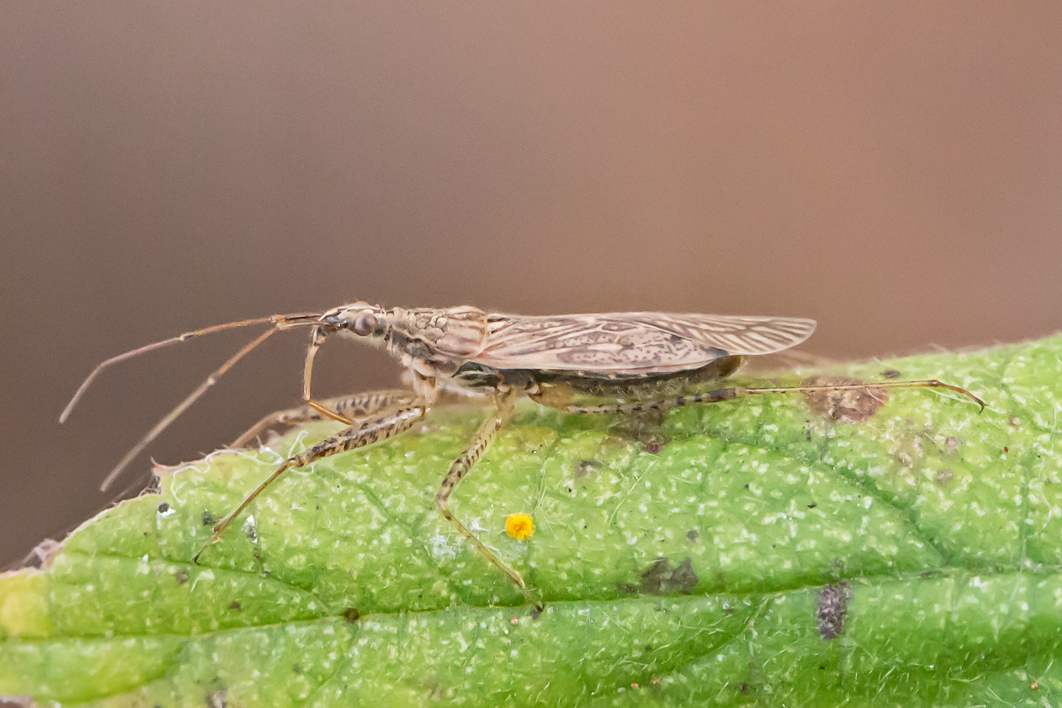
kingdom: Animalia
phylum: Arthropoda
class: Insecta
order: Hemiptera
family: Nabidae
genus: Nabis
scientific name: Nabis roseipennis
